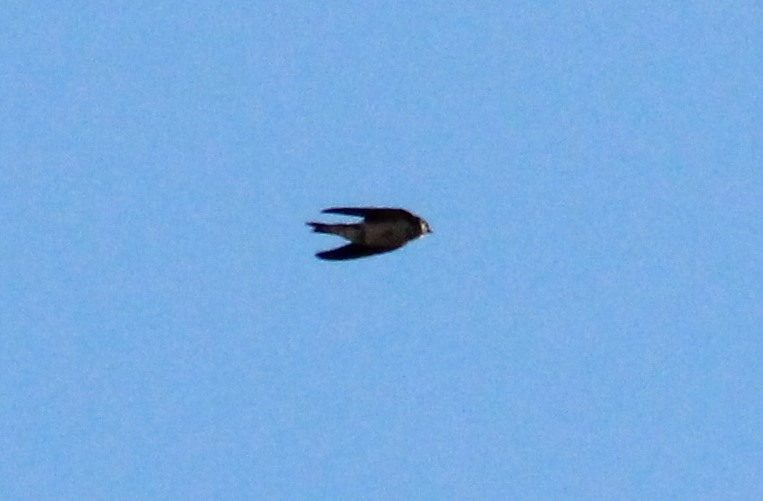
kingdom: Animalia
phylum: Chordata
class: Aves
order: Passeriformes
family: Hirundinidae
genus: Riparia
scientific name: Riparia riparia
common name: Sand martin
